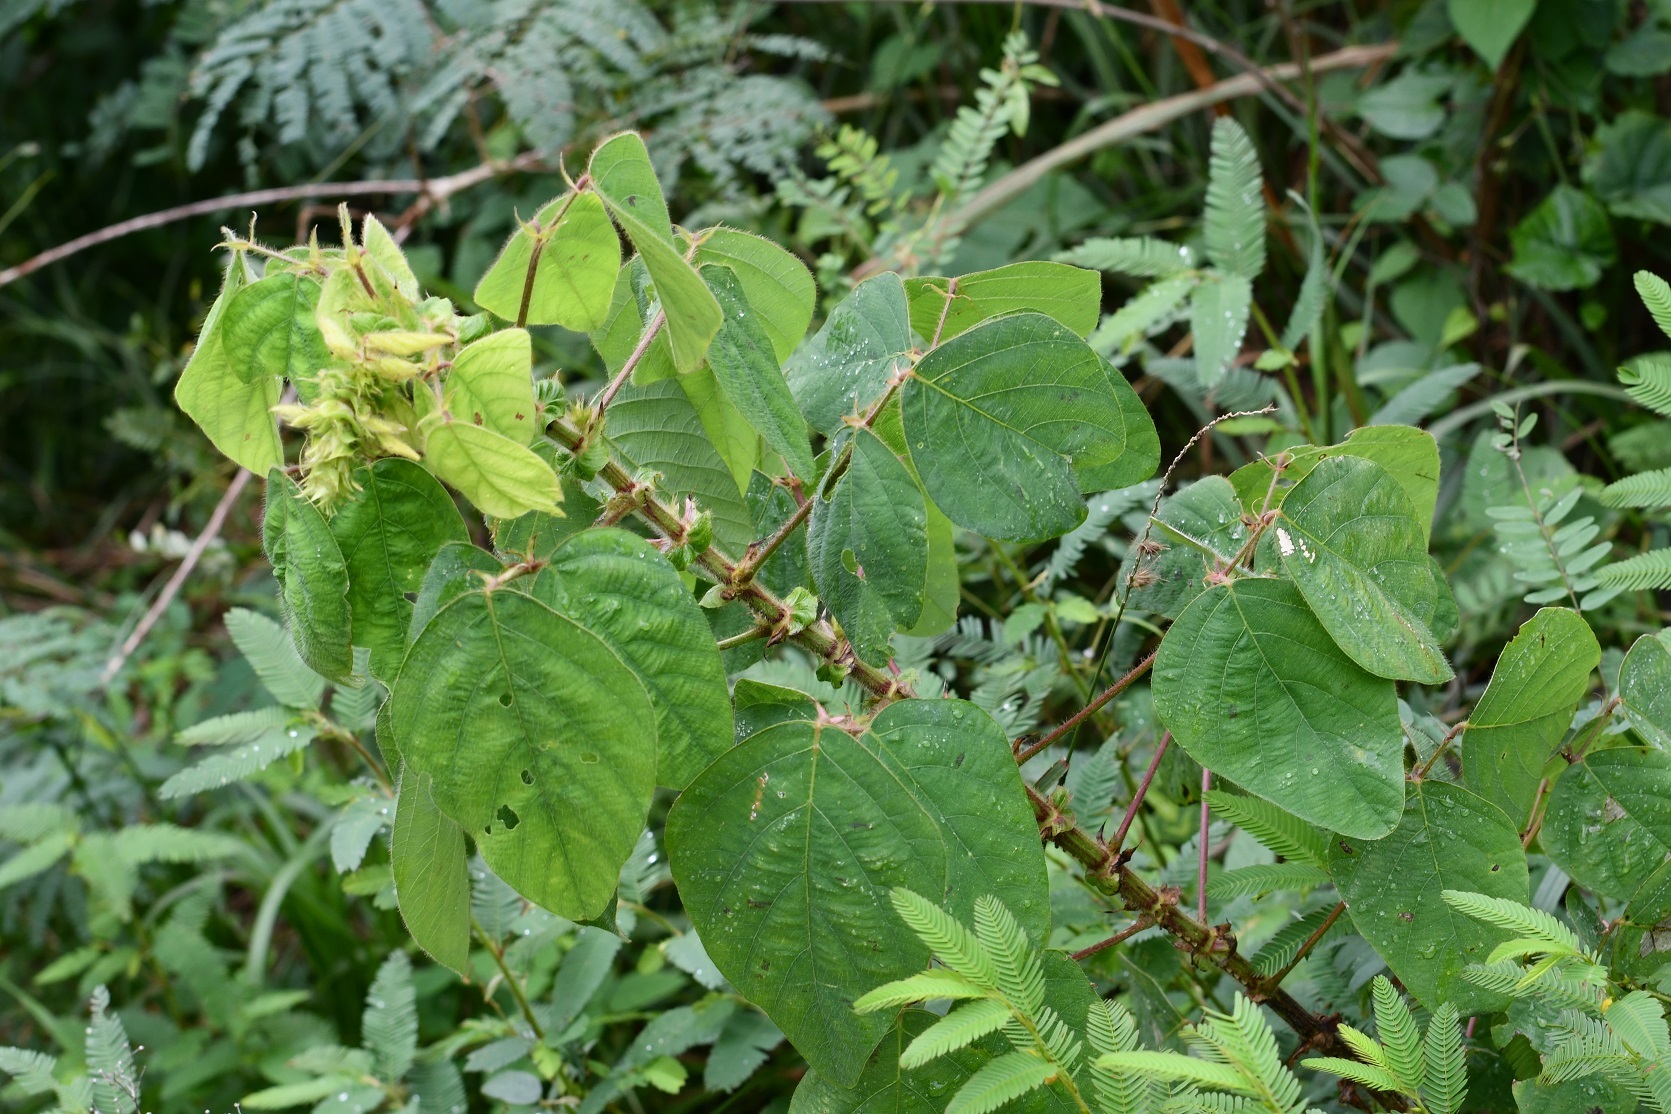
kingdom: Plantae
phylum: Tracheophyta
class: Magnoliopsida
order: Fabales
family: Fabaceae
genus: Desmodium
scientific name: Desmodium amplistipulaceum
